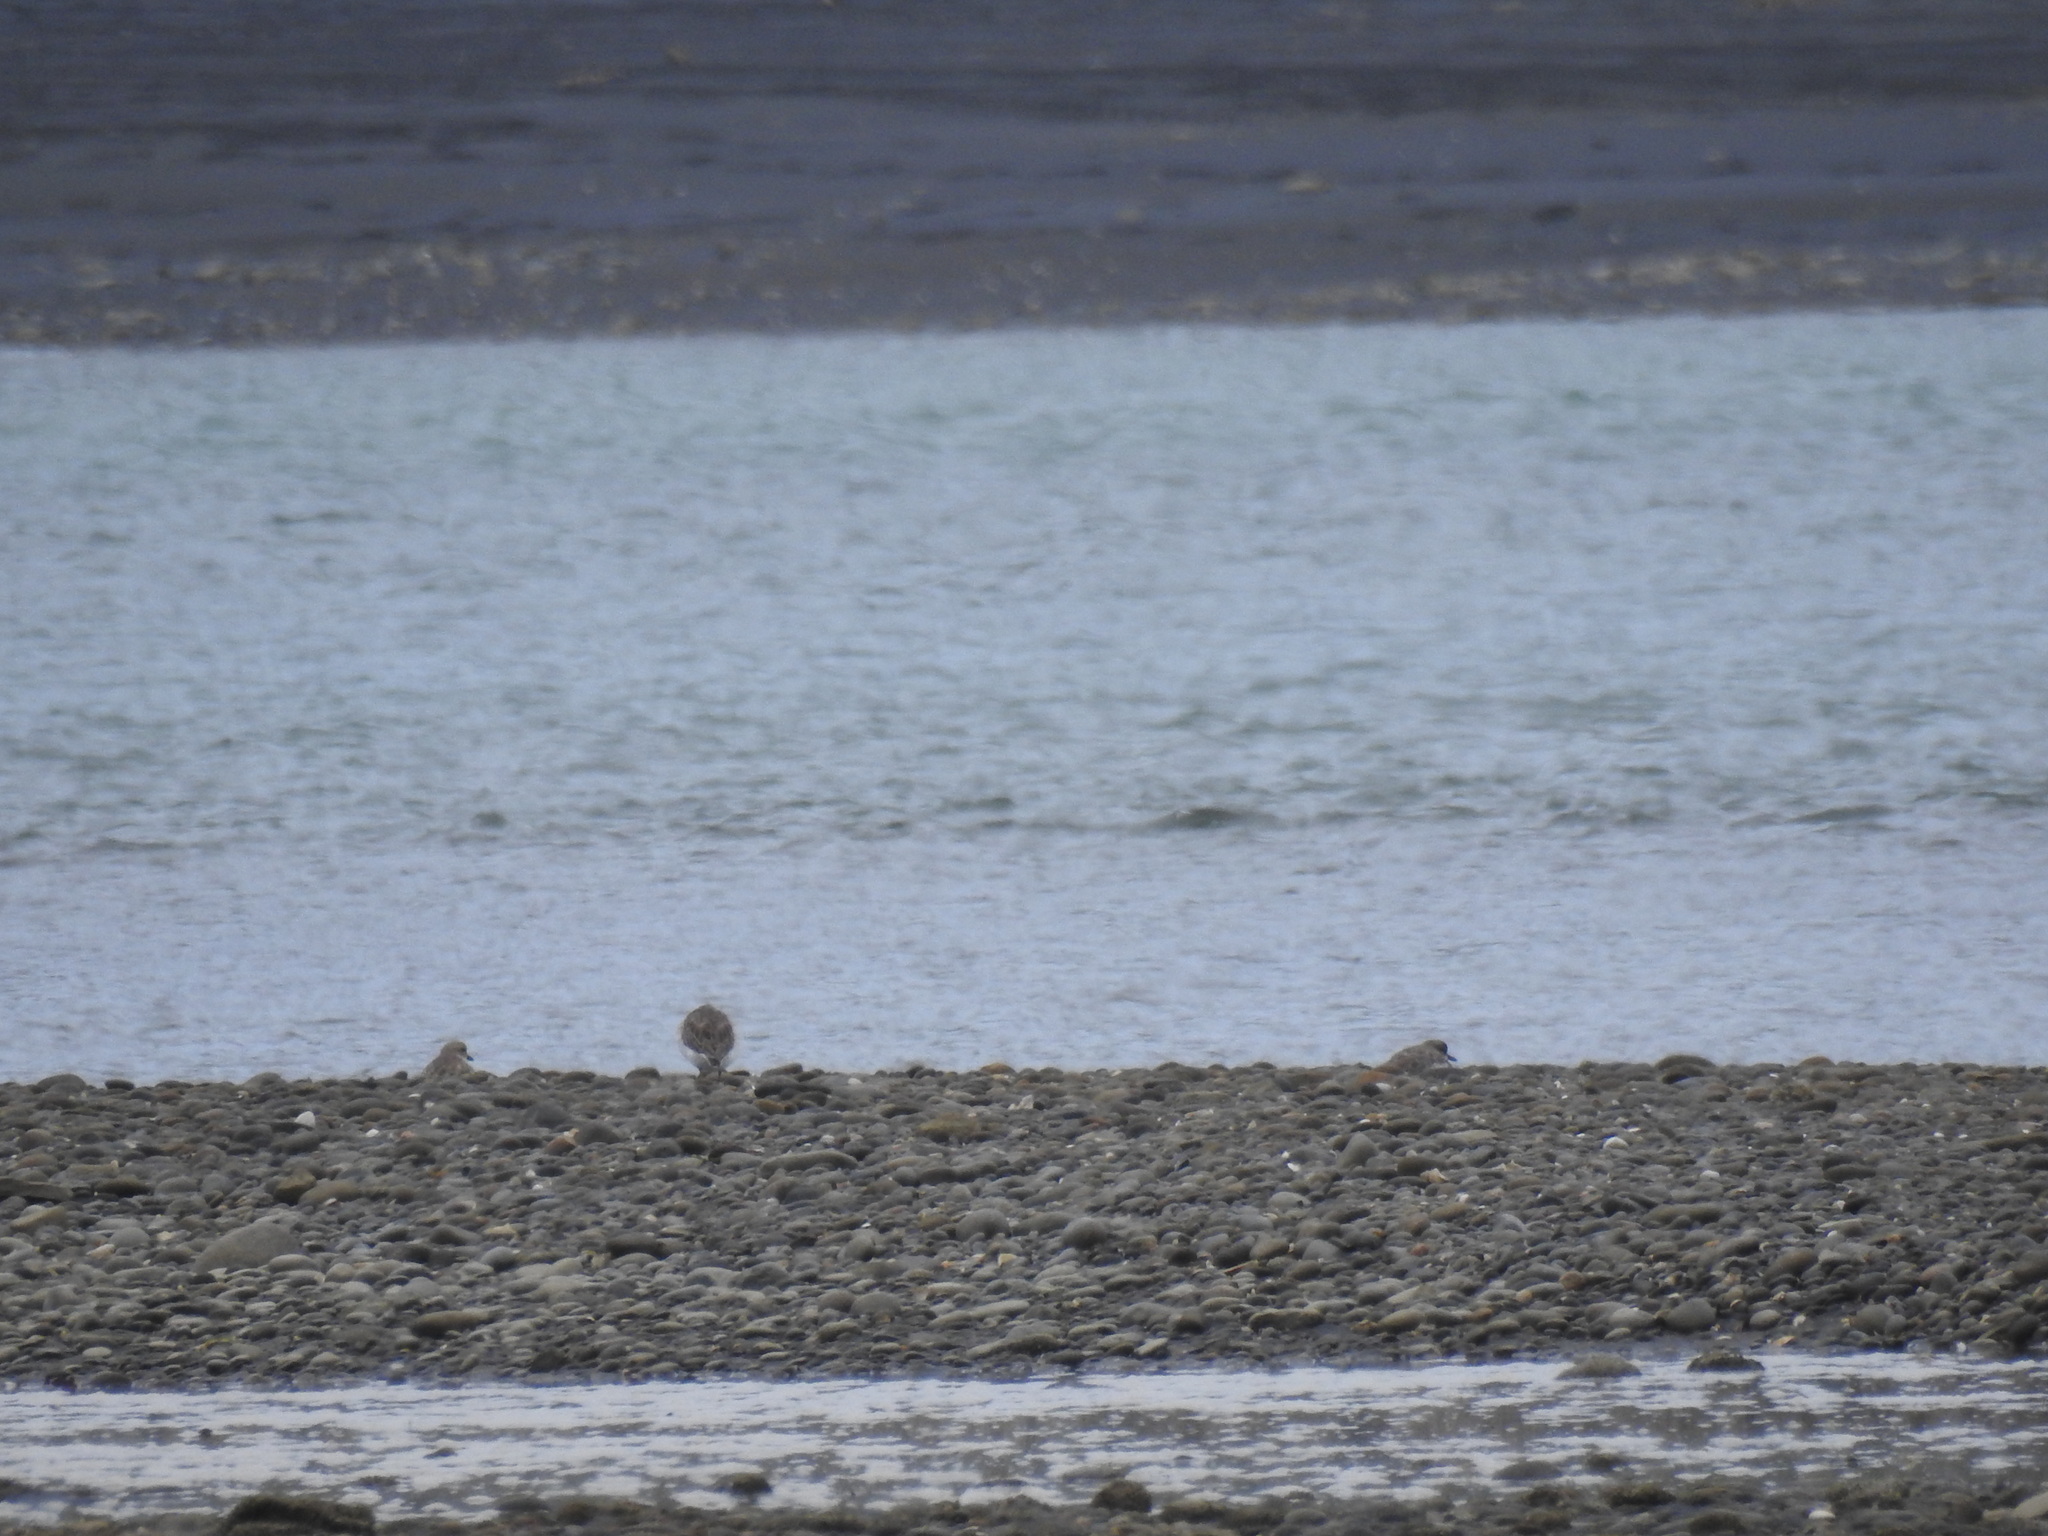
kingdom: Animalia
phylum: Chordata
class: Aves
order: Charadriiformes
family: Charadriidae
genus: Anarhynchus
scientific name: Anarhynchus
